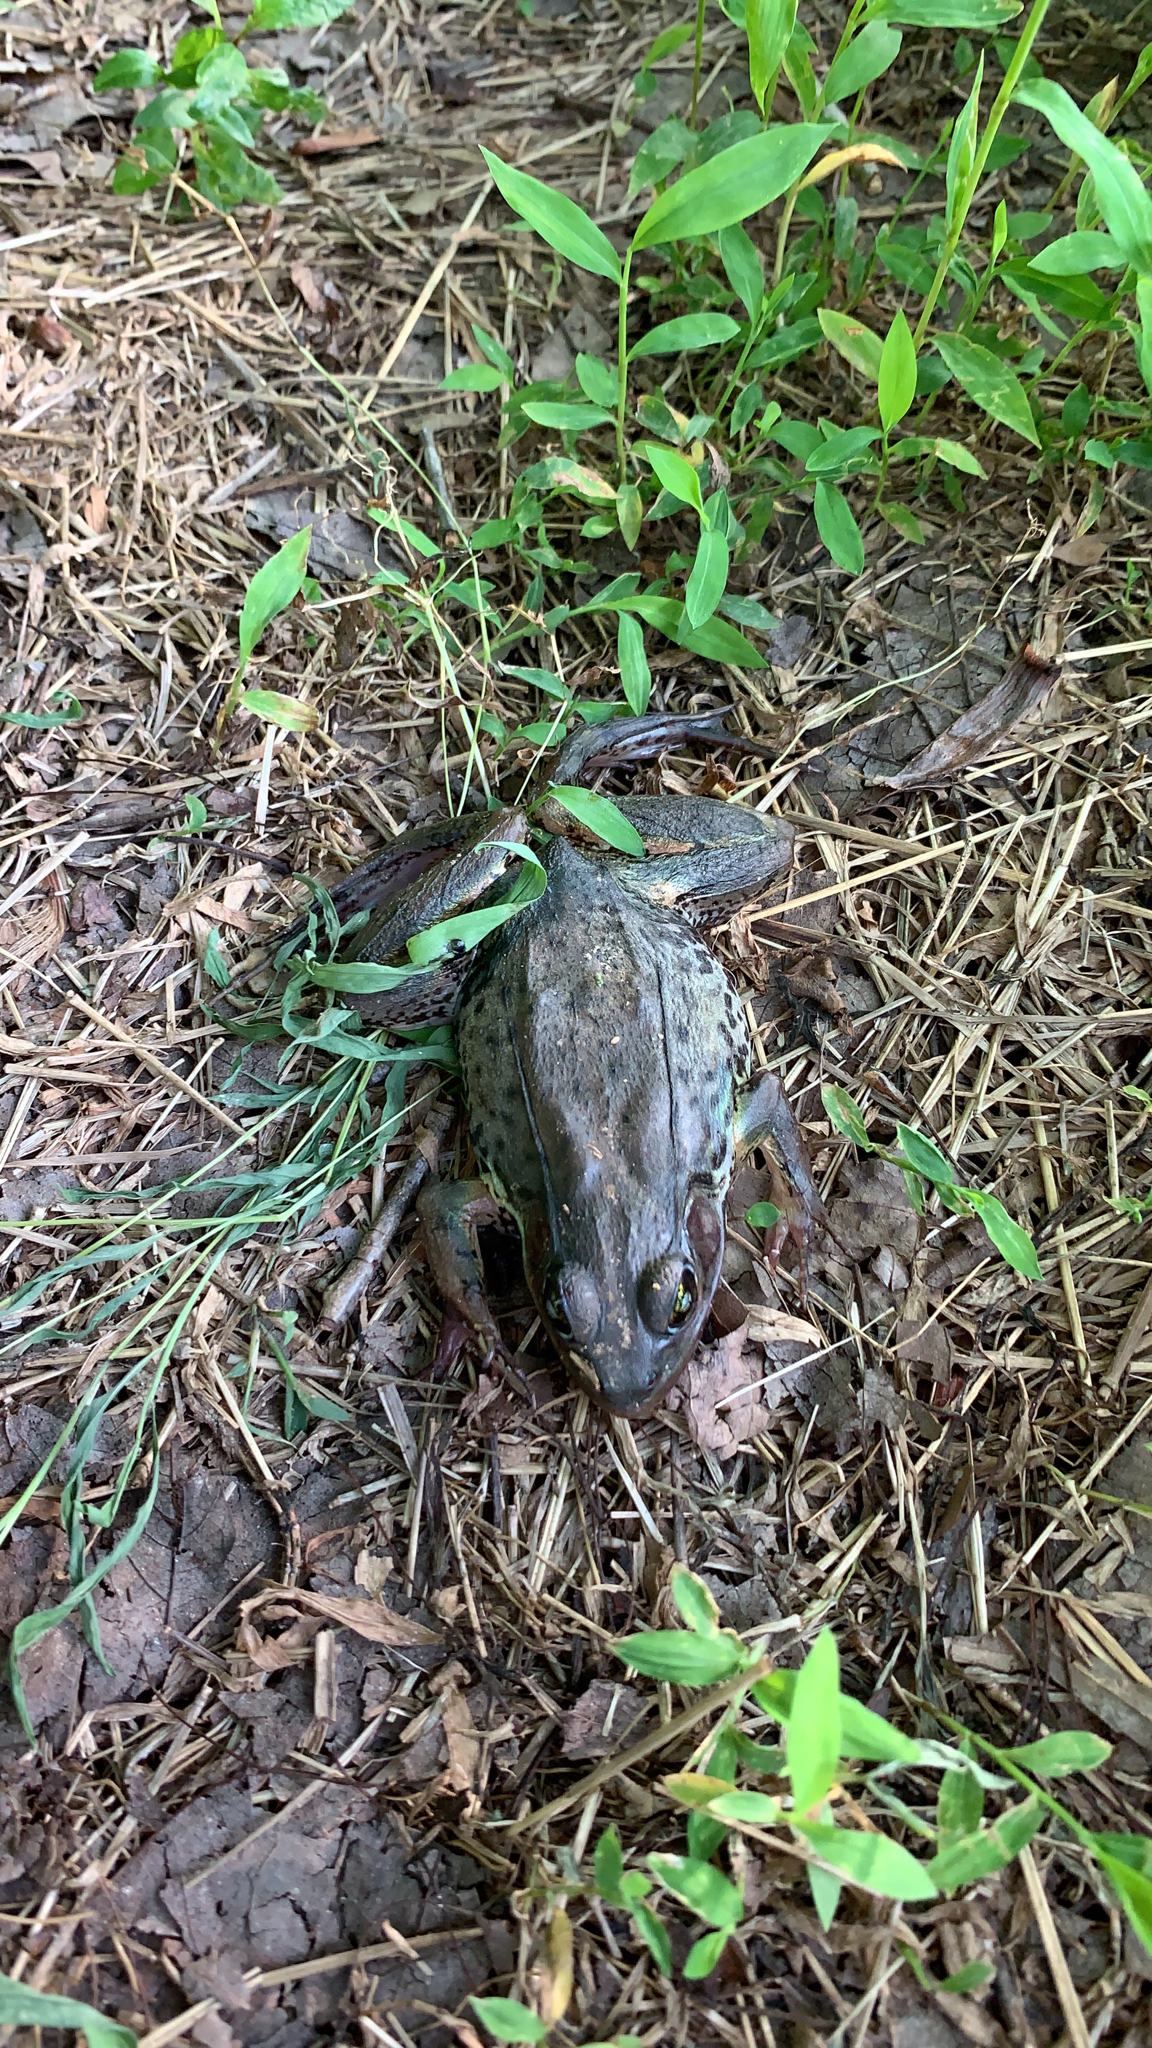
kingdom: Animalia
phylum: Chordata
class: Amphibia
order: Anura
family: Ranidae
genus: Lithobates
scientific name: Lithobates clamitans
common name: Green frog
